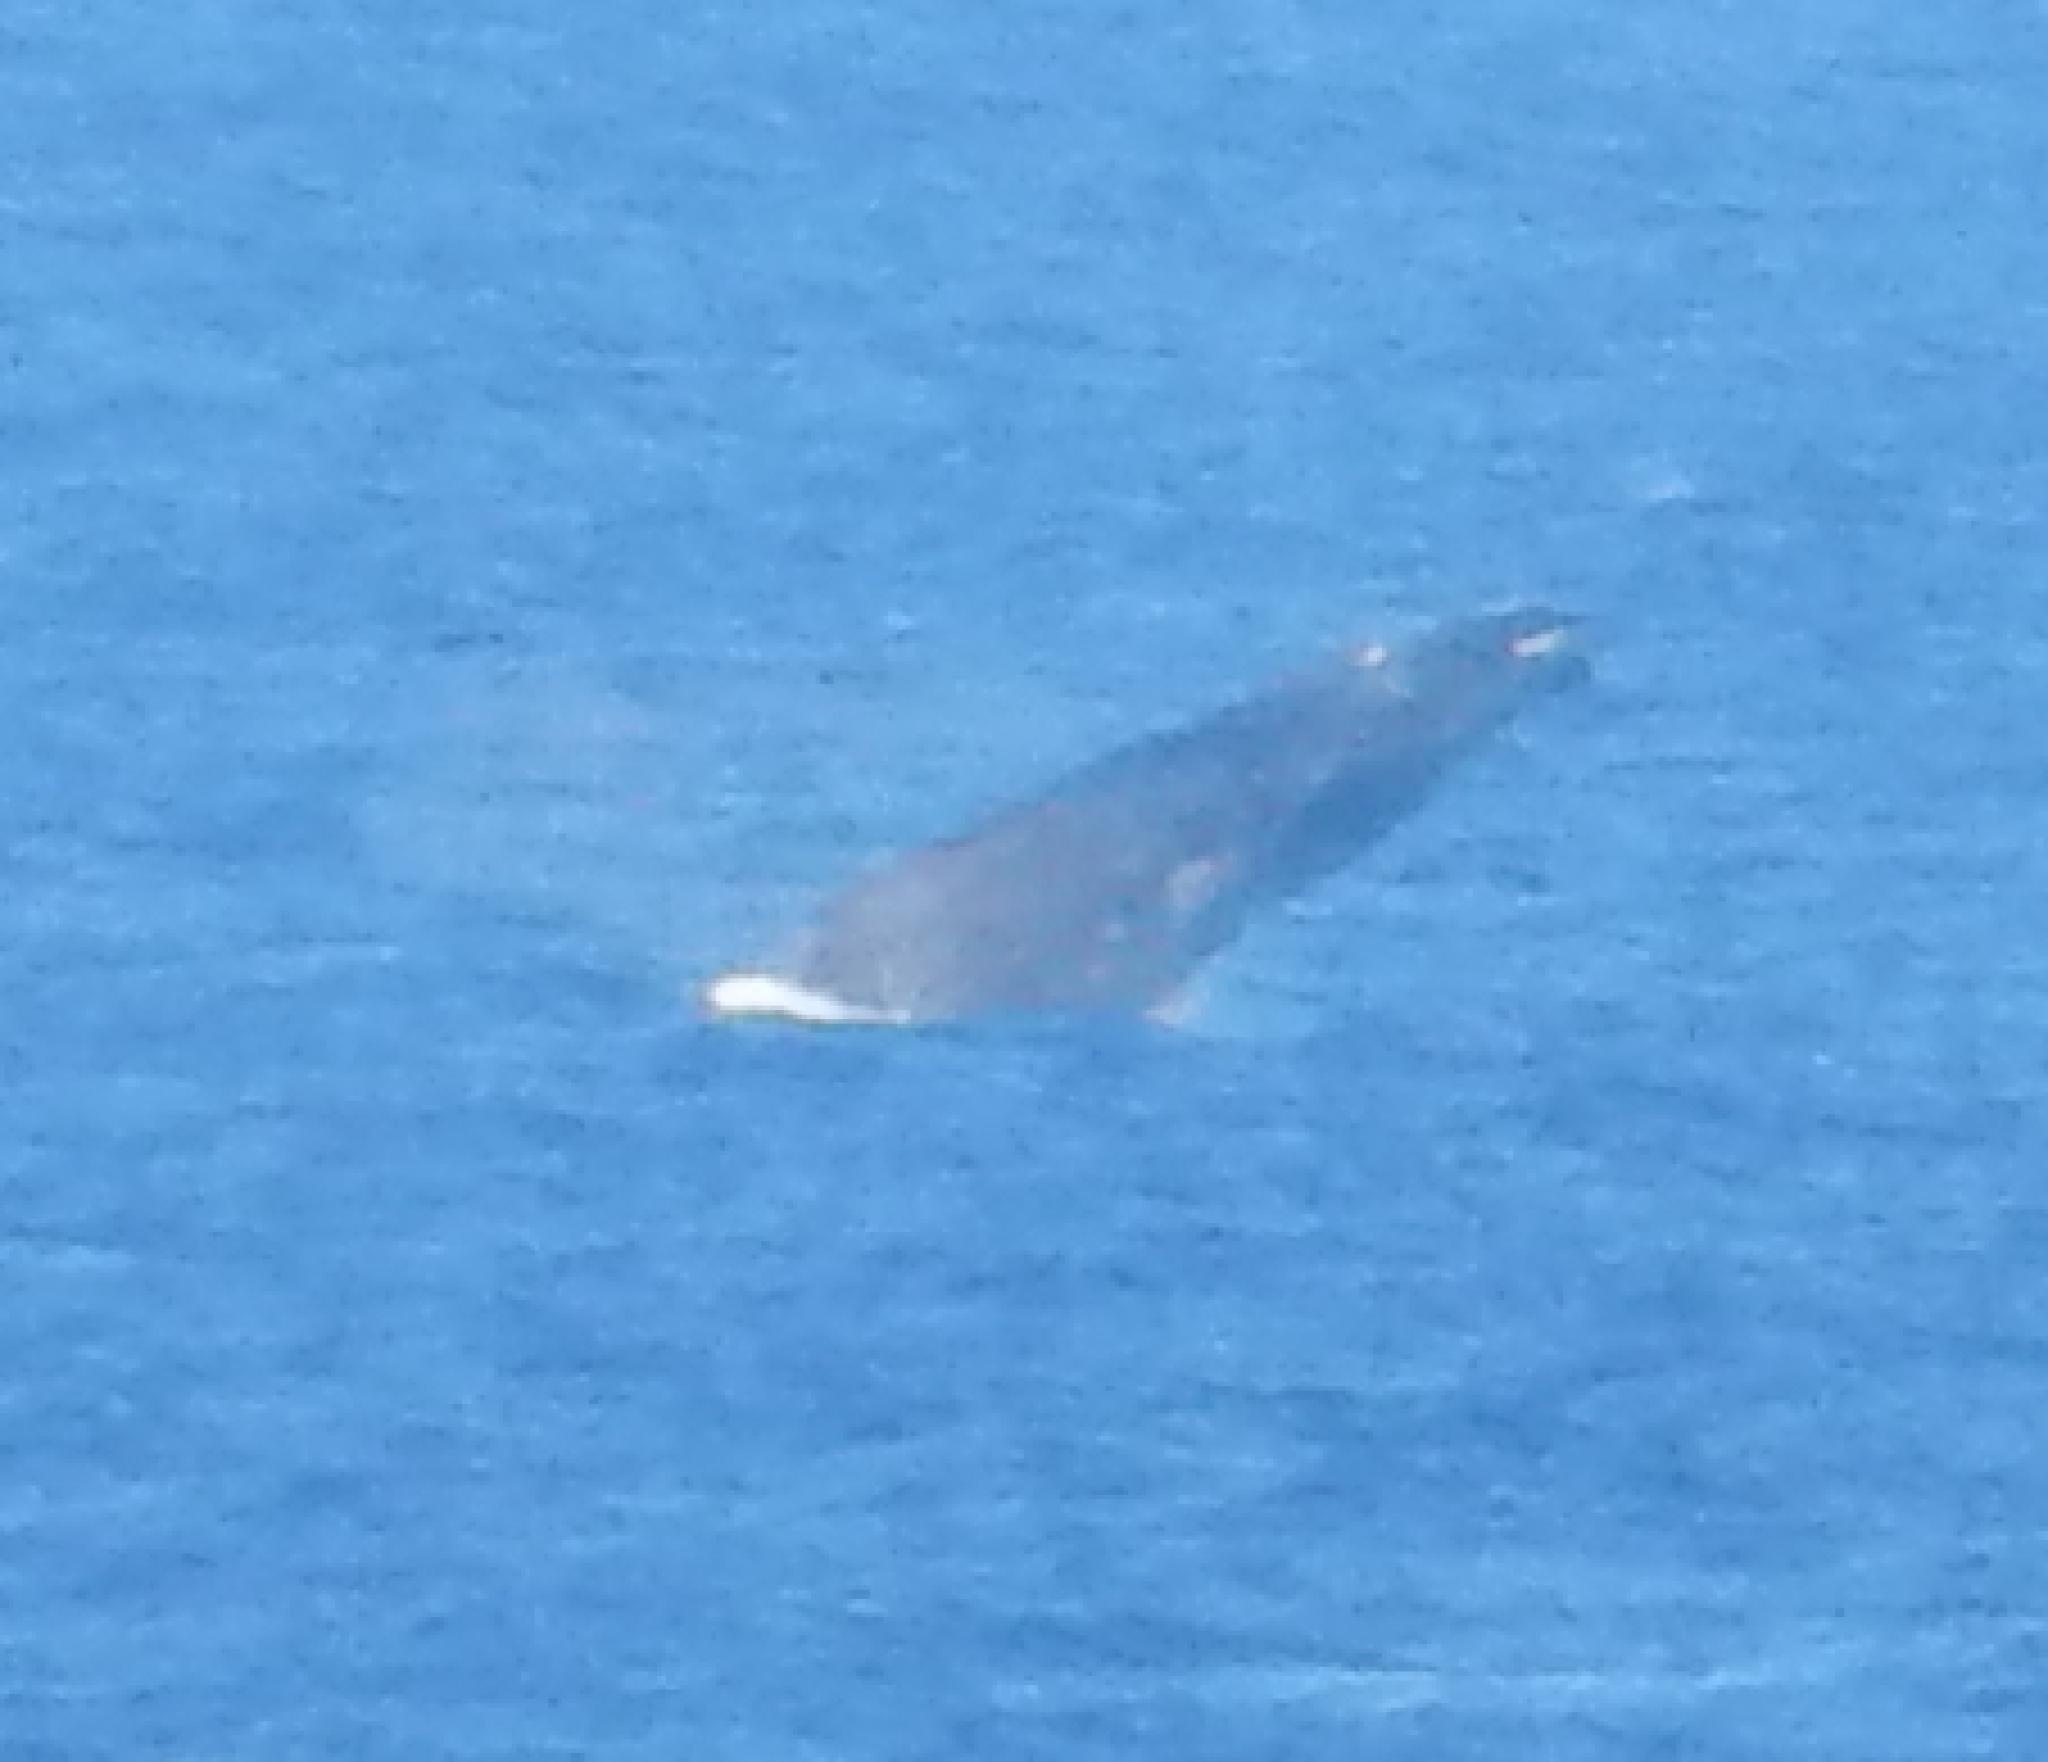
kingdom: Animalia
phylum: Chordata
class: Mammalia
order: Cetacea
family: Balaenopteridae
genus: Megaptera
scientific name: Megaptera novaeangliae
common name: Humpback whale
